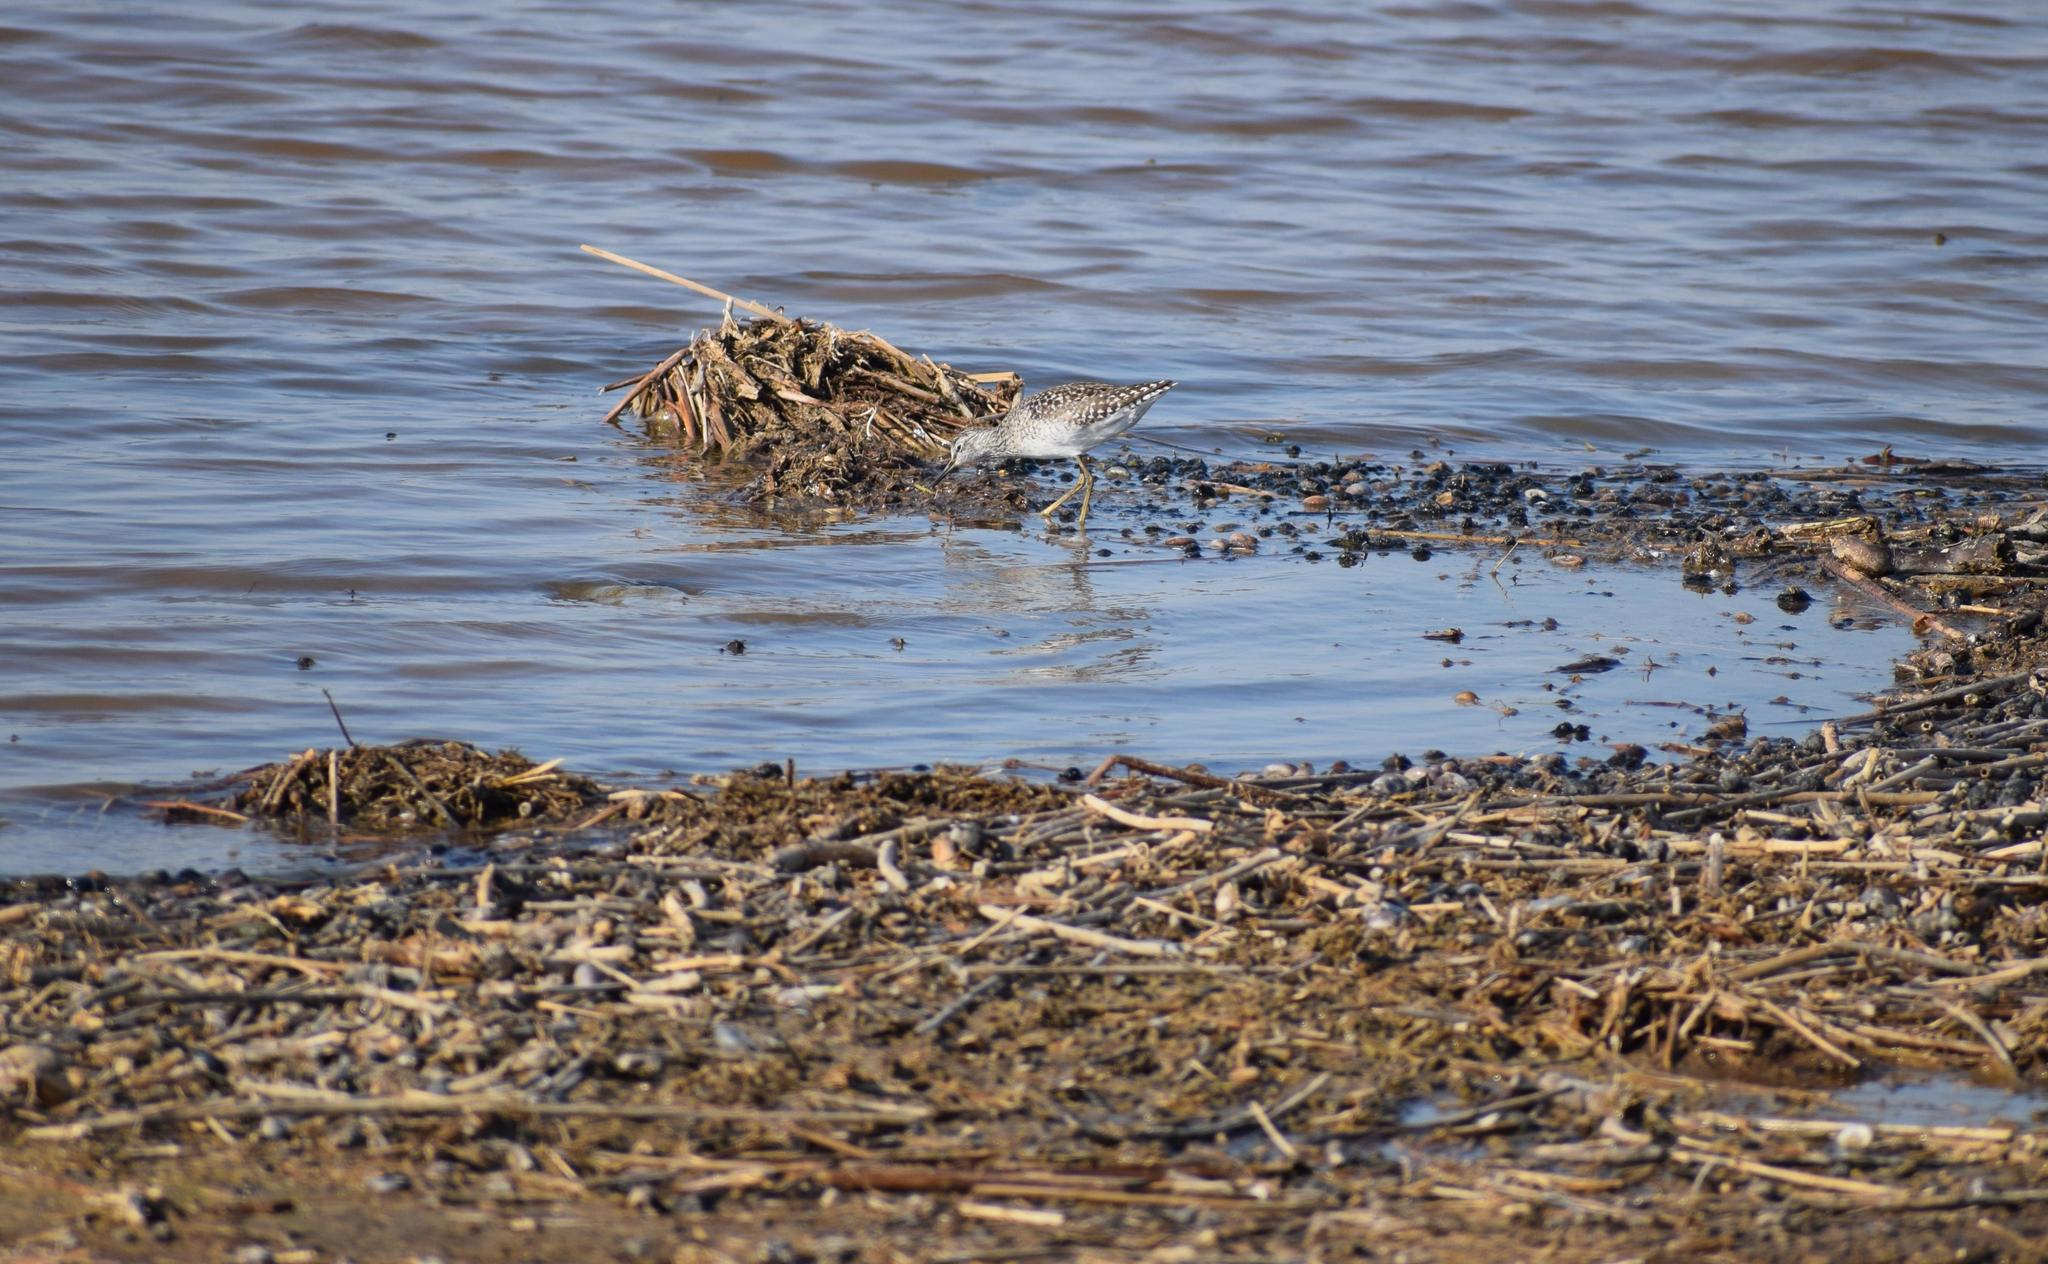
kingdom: Animalia
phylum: Chordata
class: Aves
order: Charadriiformes
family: Scolopacidae
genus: Tringa
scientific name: Tringa glareola
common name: Wood sandpiper
